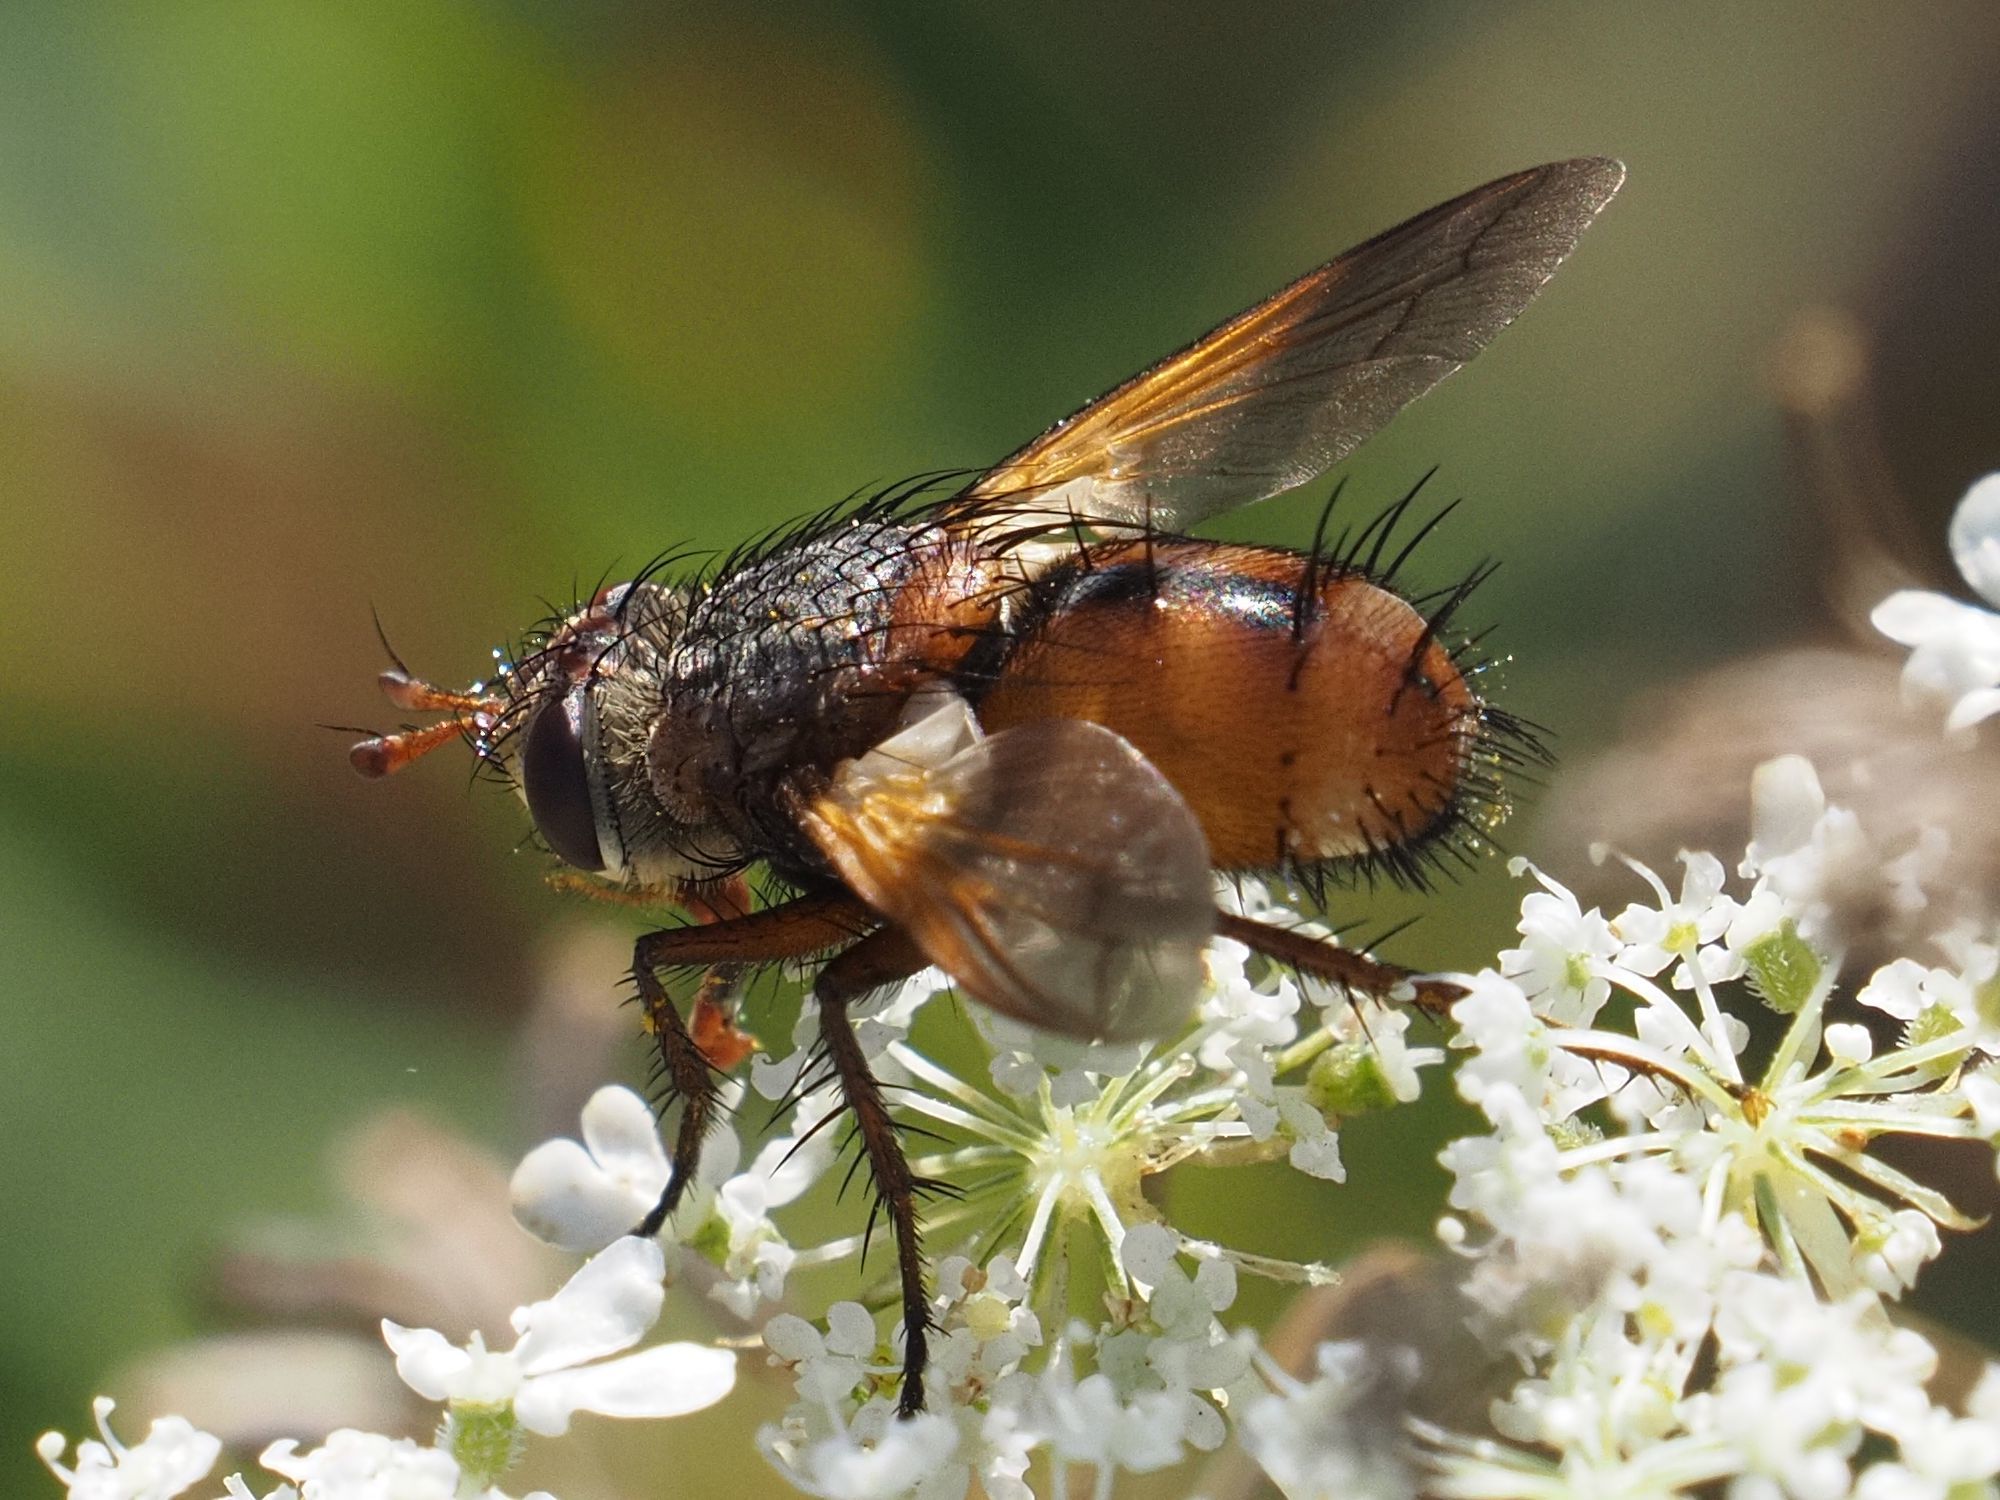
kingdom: Animalia
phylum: Arthropoda
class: Insecta
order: Diptera
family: Tachinidae
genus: Tachina
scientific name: Tachina fera
